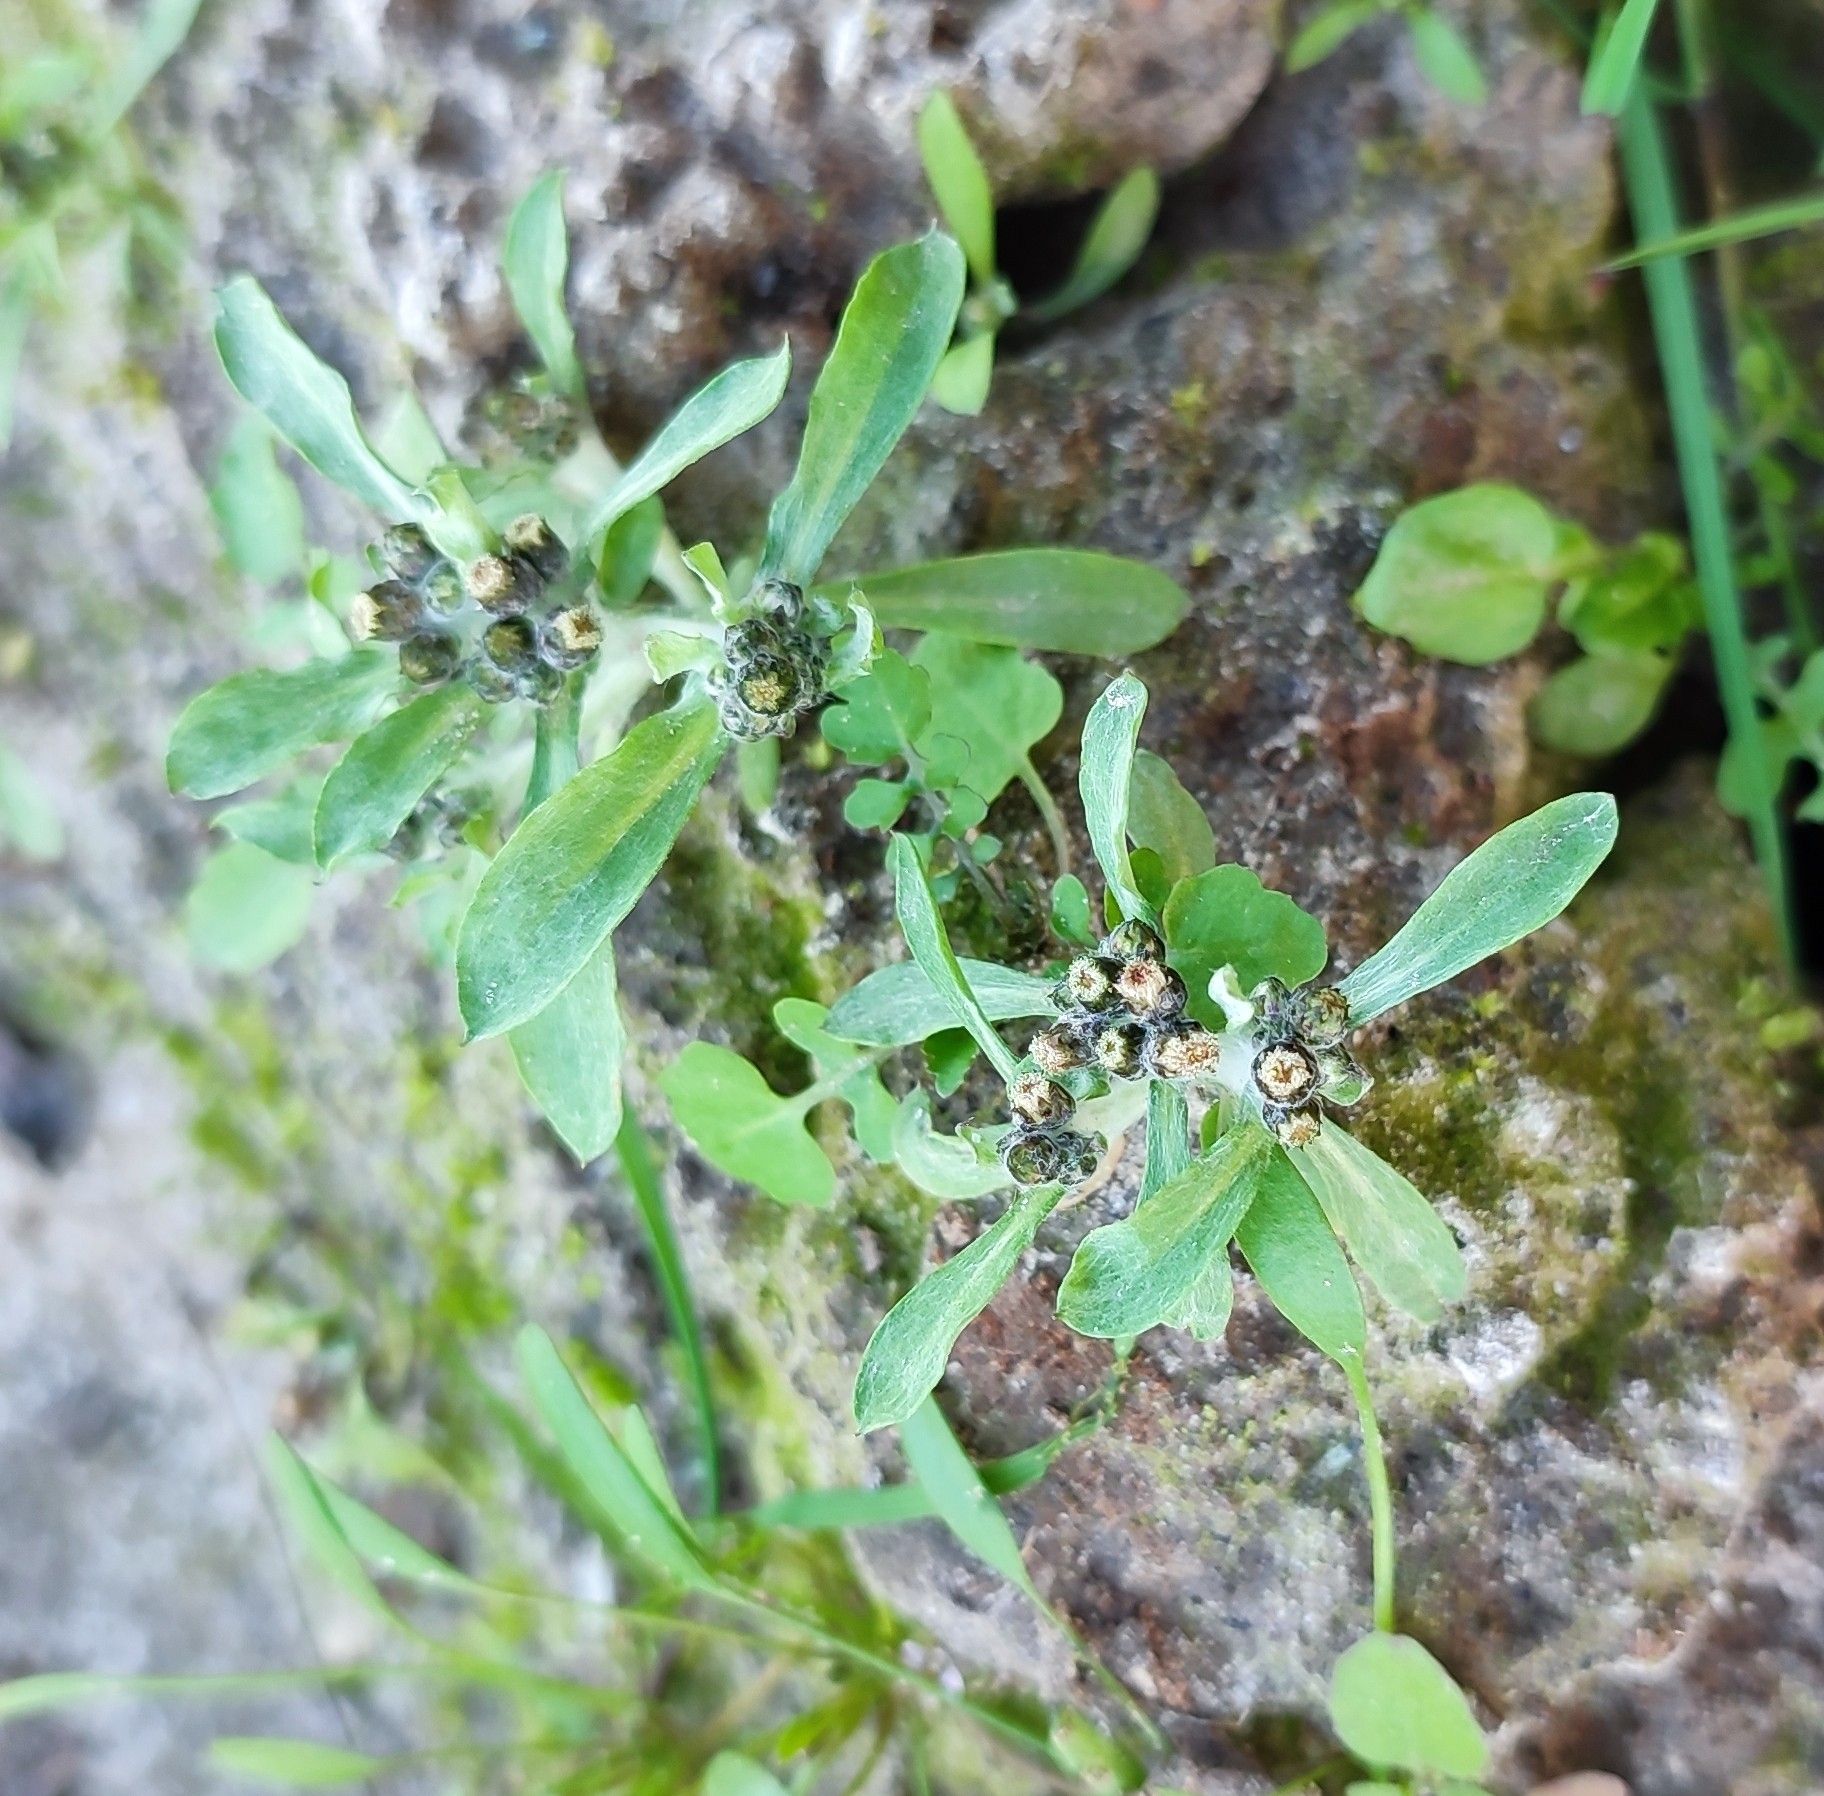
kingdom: Plantae
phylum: Tracheophyta
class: Magnoliopsida
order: Asterales
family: Asteraceae
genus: Gnaphalium
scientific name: Gnaphalium uliginosum
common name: Marsh cudweed
